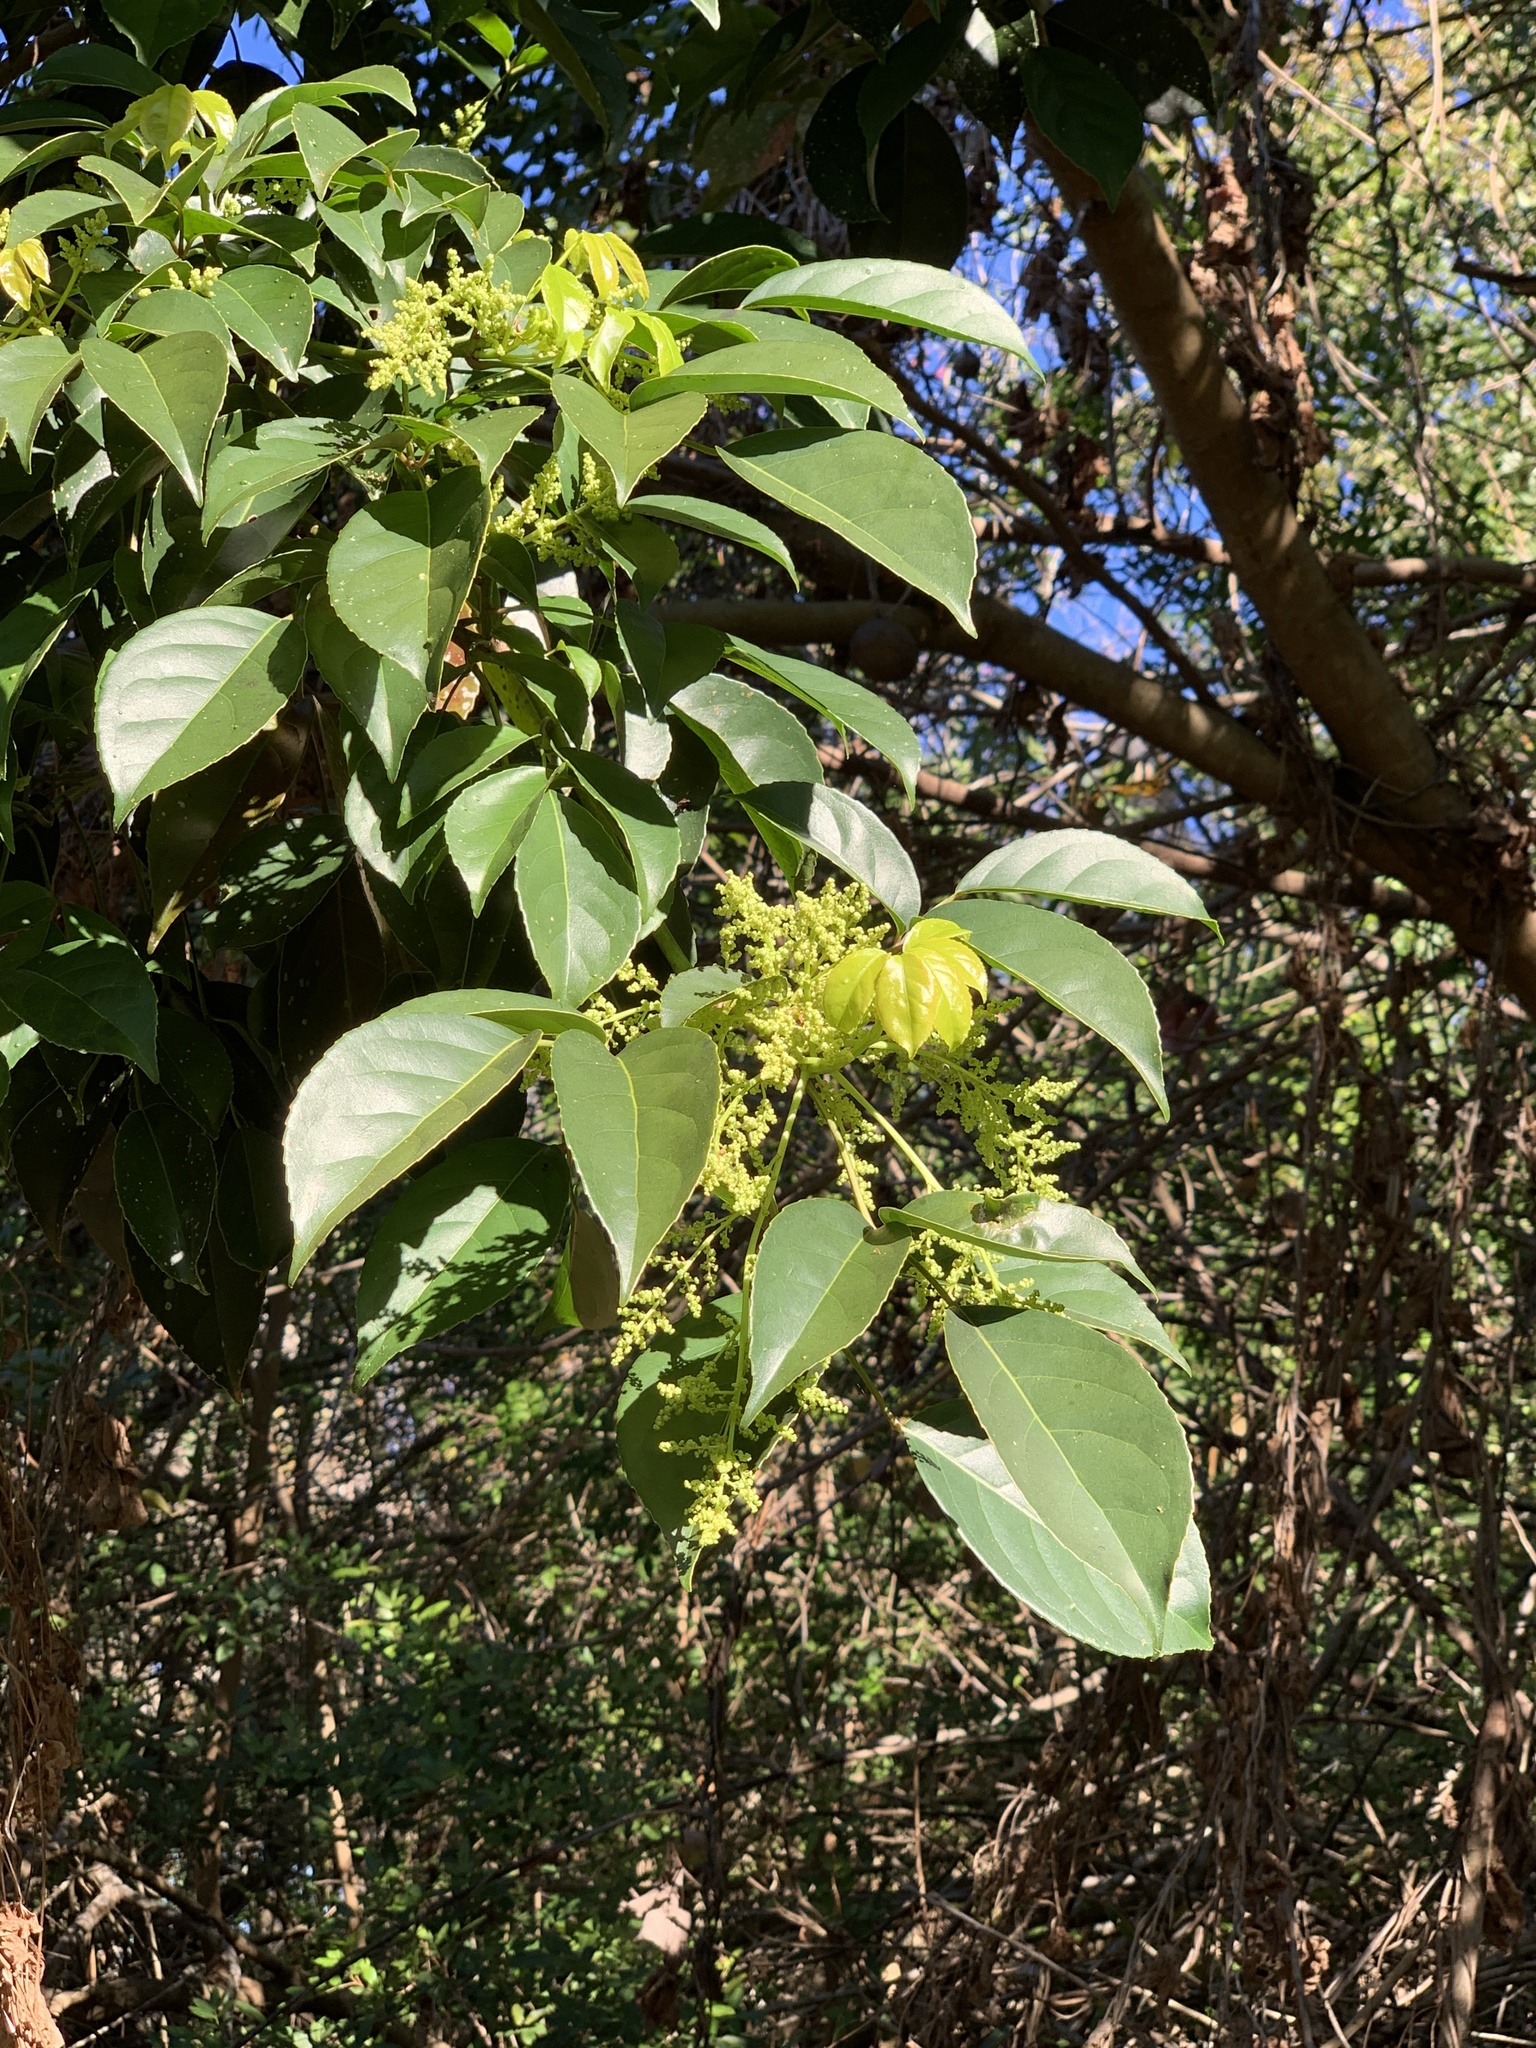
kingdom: Plantae
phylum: Tracheophyta
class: Magnoliopsida
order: Malpighiales
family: Phyllanthaceae
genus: Bischofia
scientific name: Bischofia javanica
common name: Javanese bishopwood
